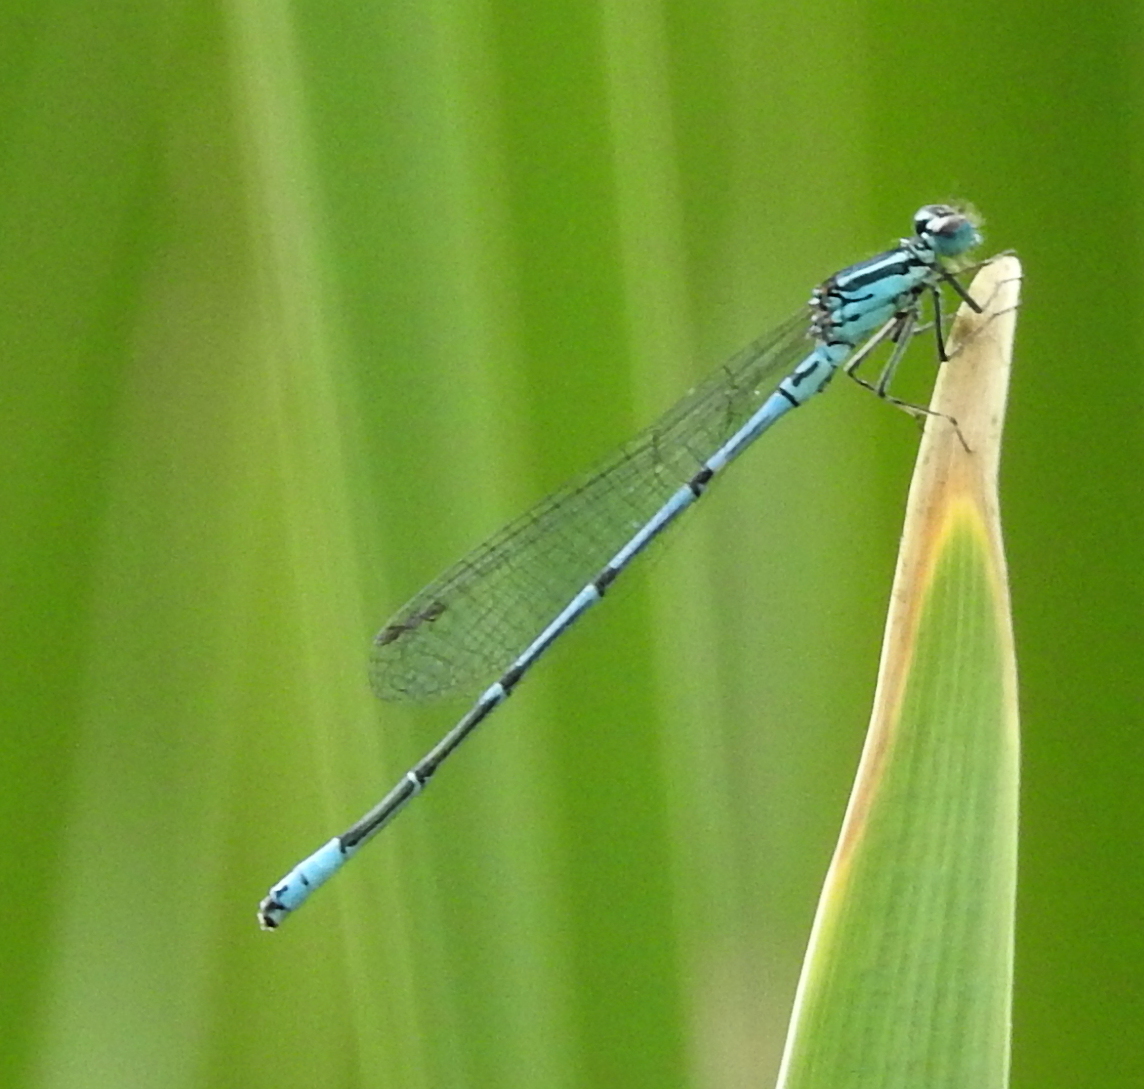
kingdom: Animalia
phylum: Arthropoda
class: Insecta
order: Odonata
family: Coenagrionidae
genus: Coenagrion
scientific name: Coenagrion puella
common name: Azure damselfly
